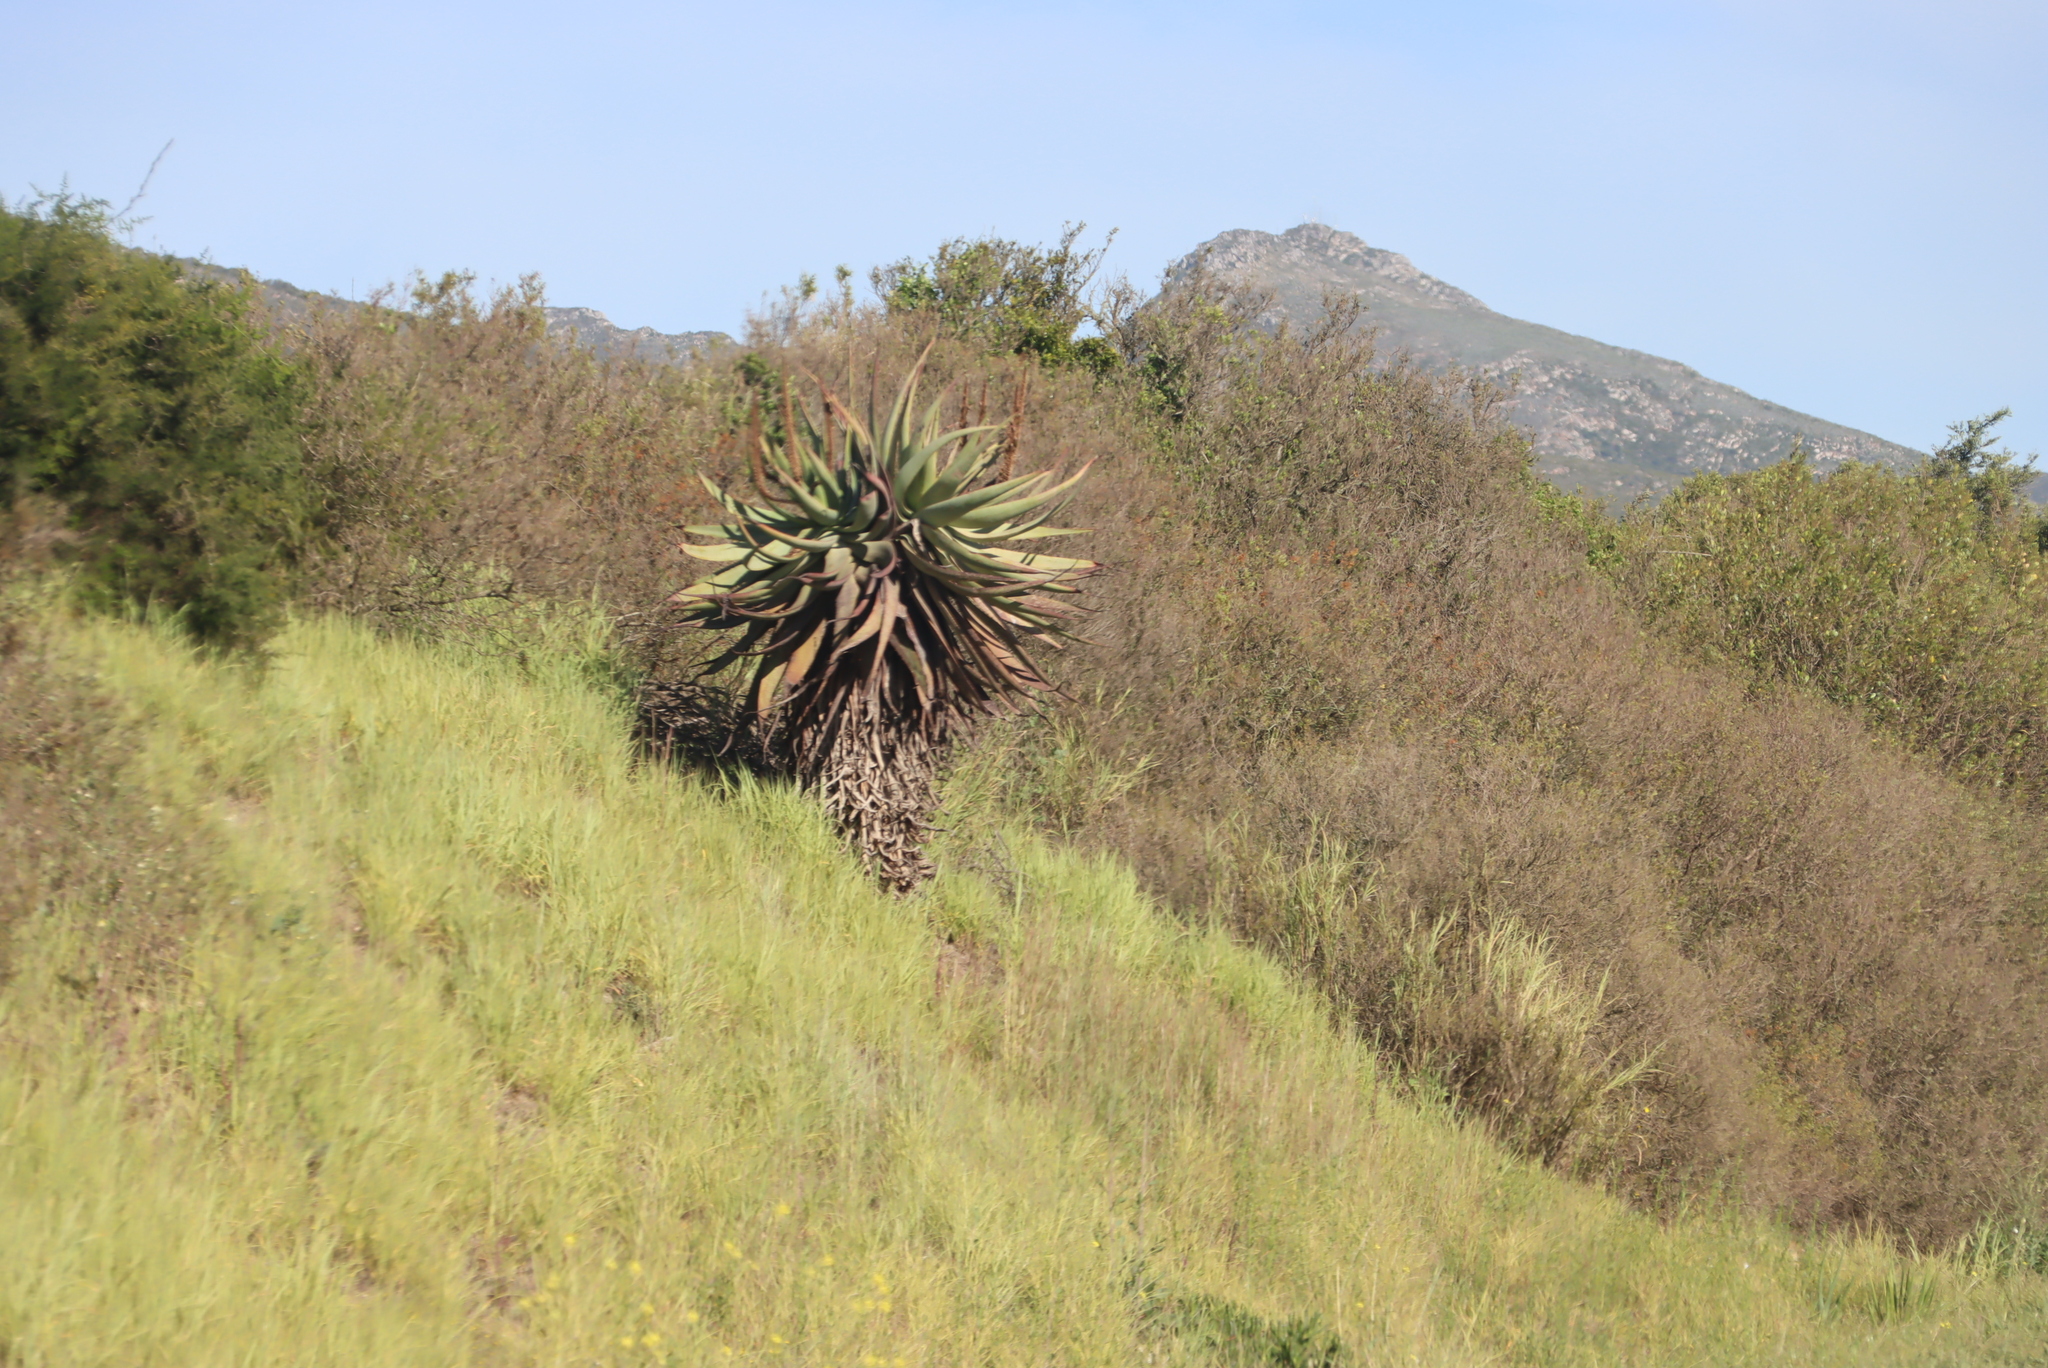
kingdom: Plantae
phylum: Tracheophyta
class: Liliopsida
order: Asparagales
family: Asphodelaceae
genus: Aloe
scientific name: Aloe ferox
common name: Bitter aloe
